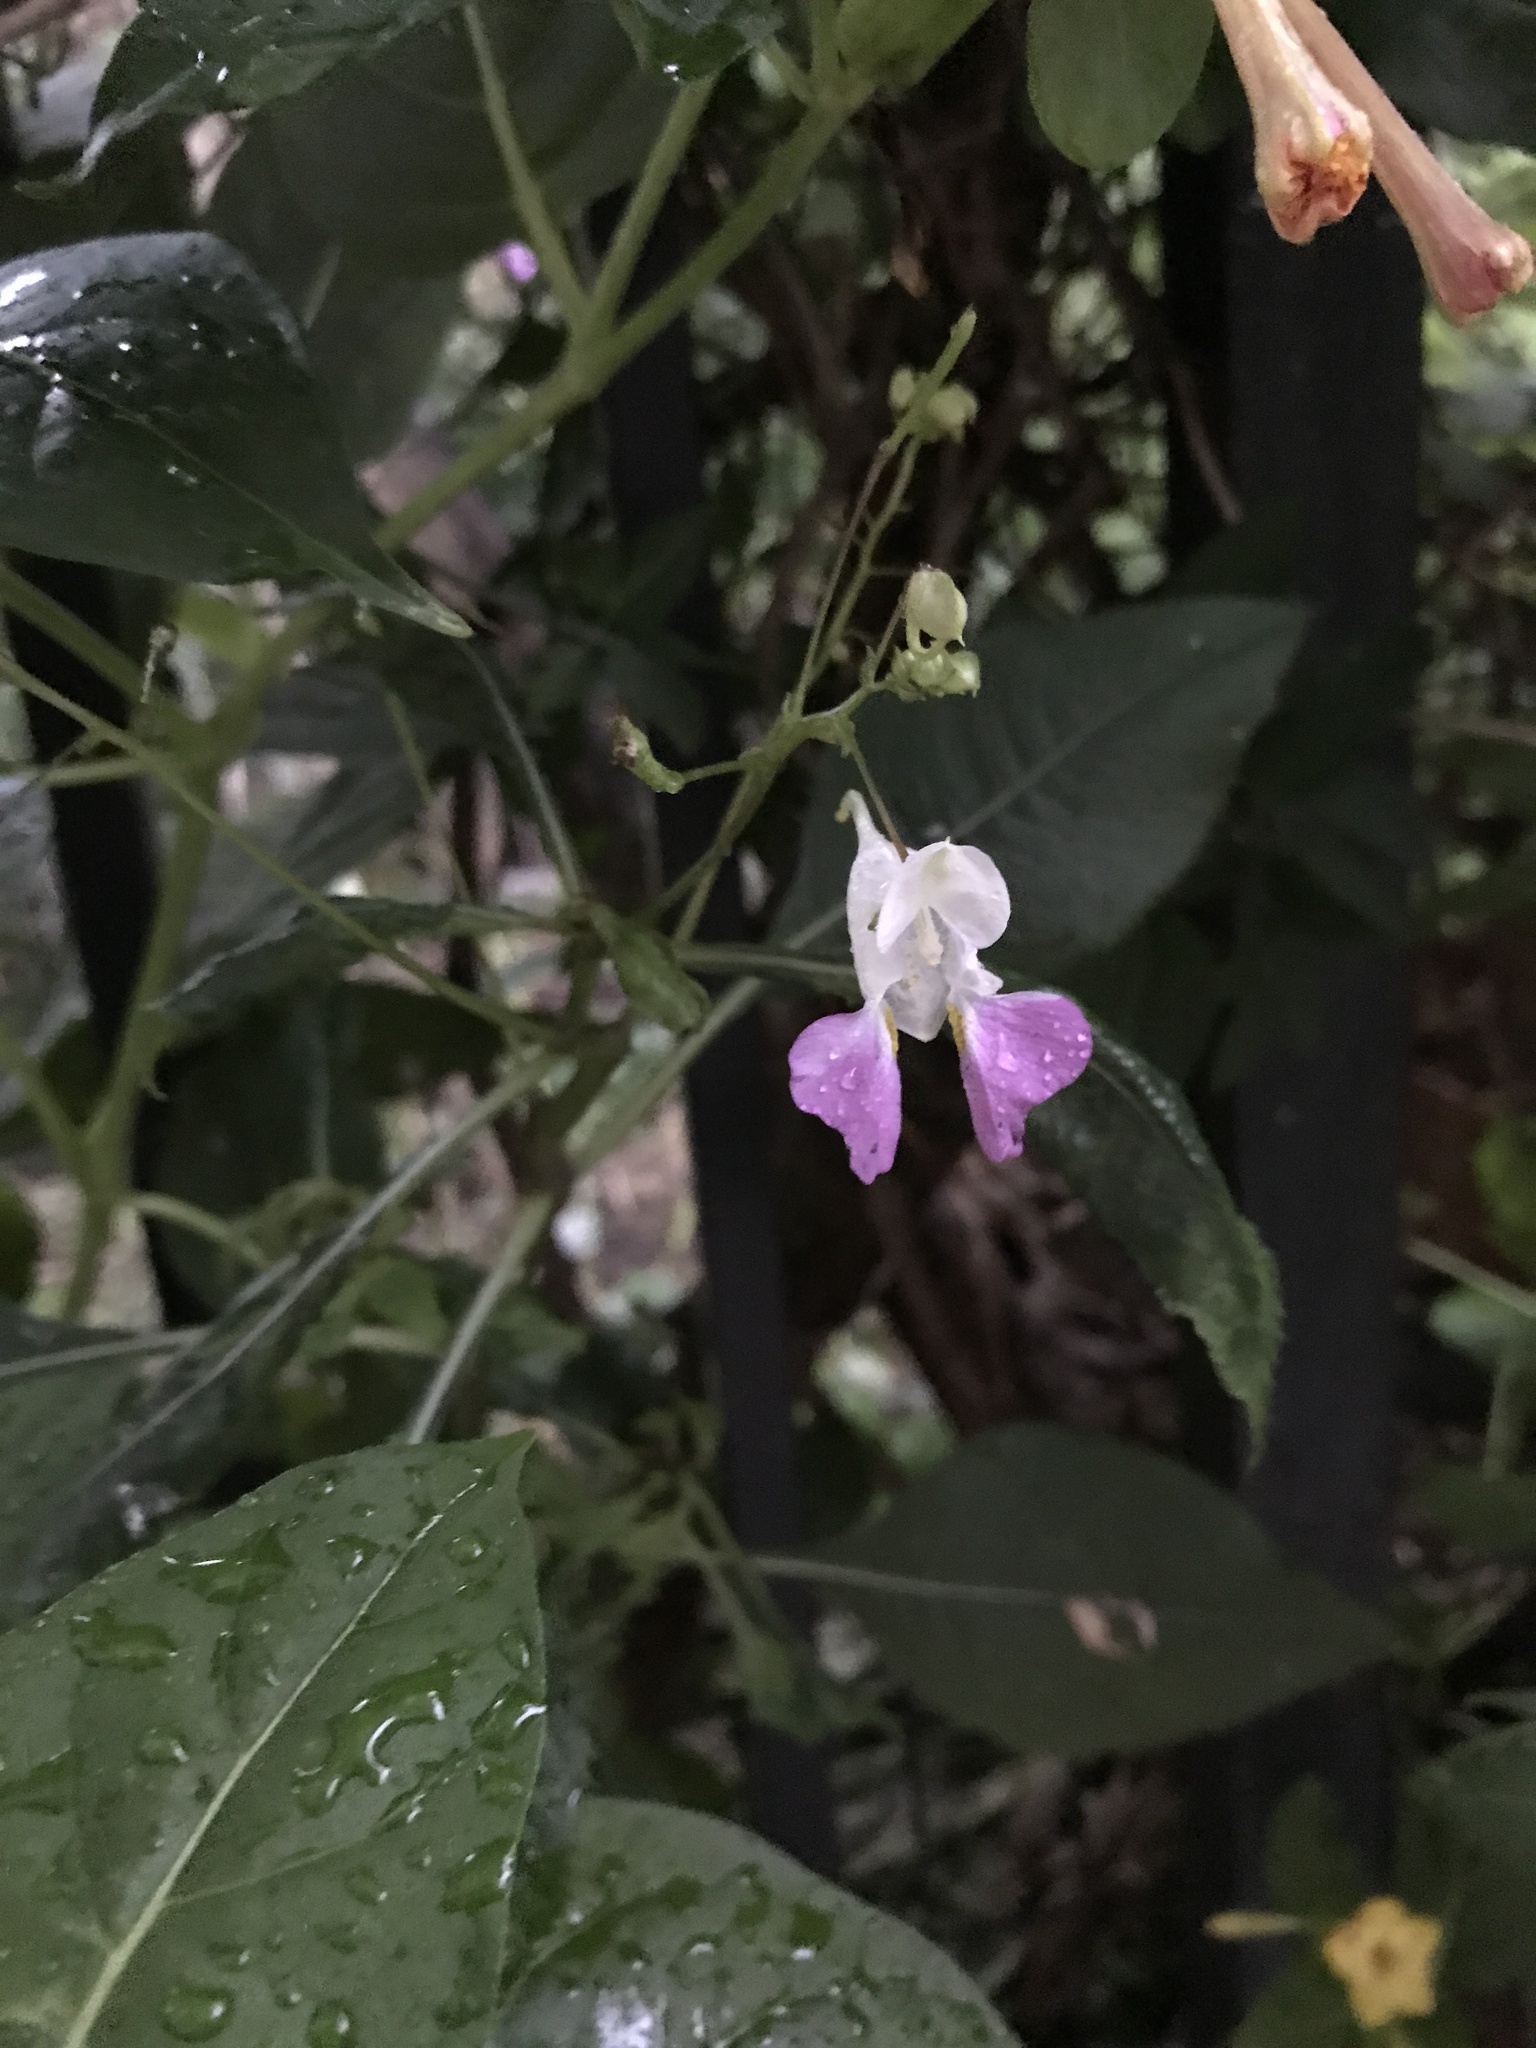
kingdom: Plantae
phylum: Tracheophyta
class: Magnoliopsida
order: Ericales
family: Balsaminaceae
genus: Impatiens
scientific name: Impatiens balfourii
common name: Balfour's touch-me-not
